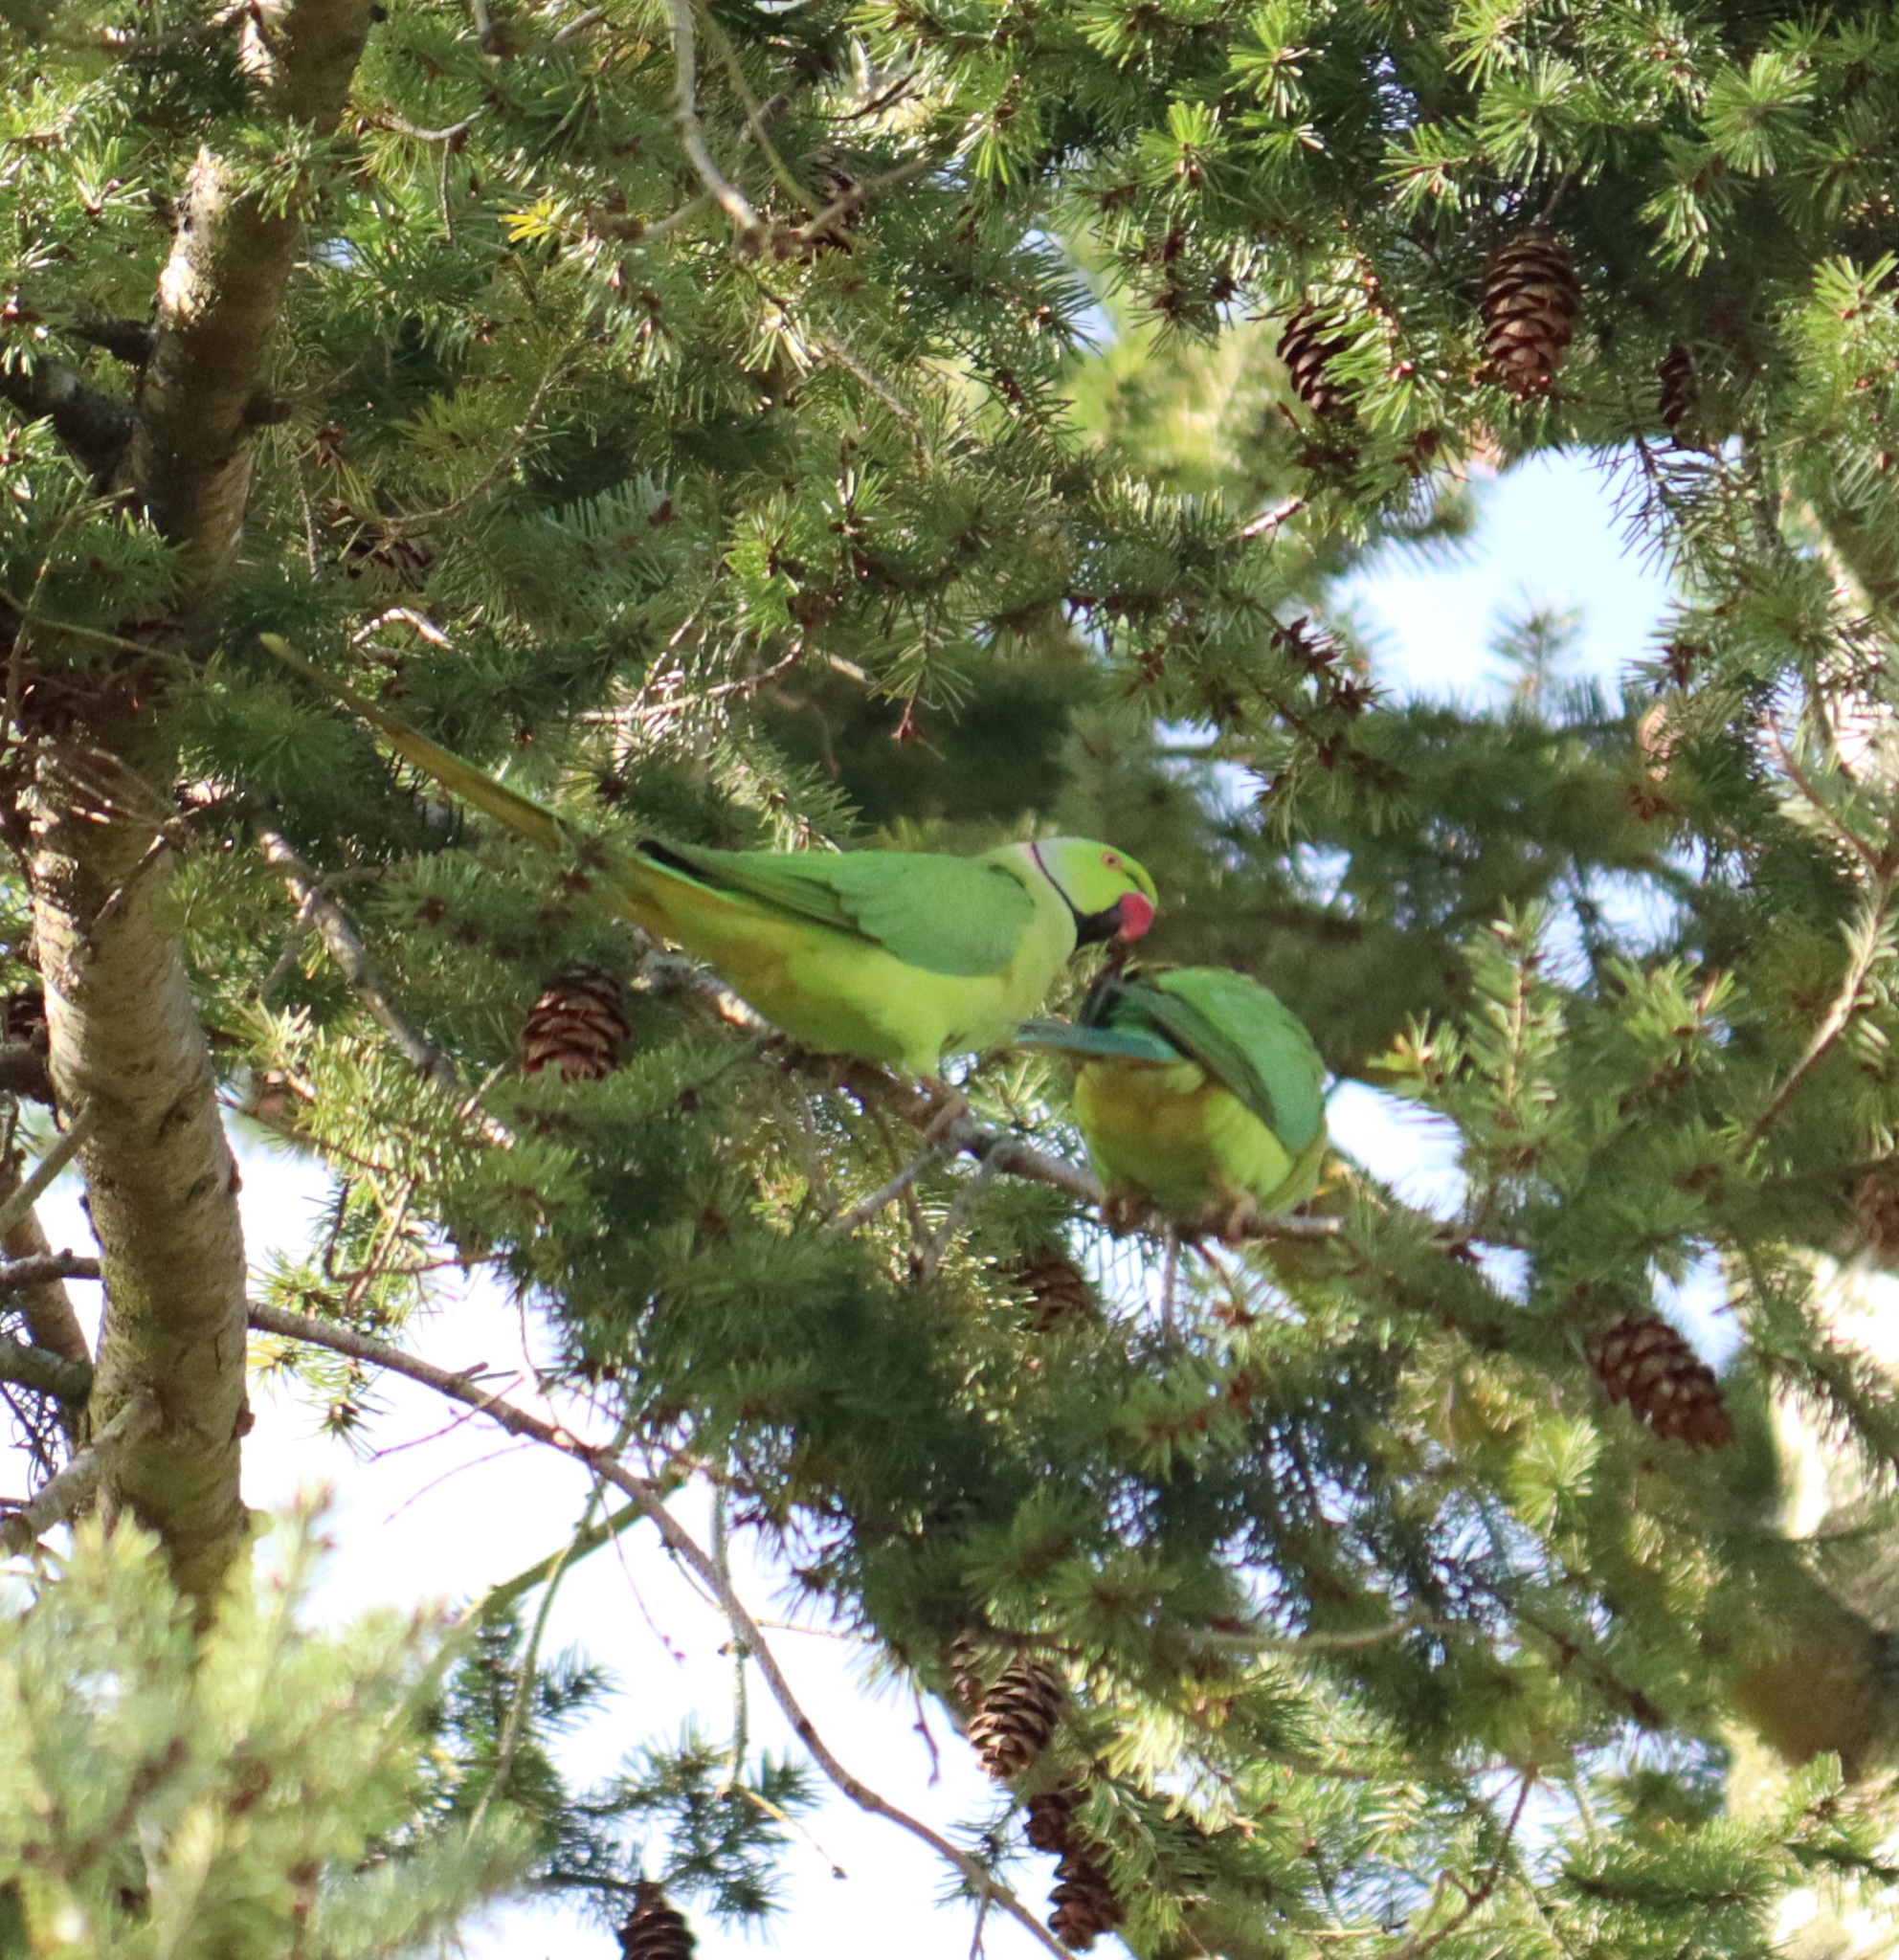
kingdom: Animalia
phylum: Chordata
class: Aves
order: Psittaciformes
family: Psittacidae
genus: Psittacula
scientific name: Psittacula krameri
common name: Rose-ringed parakeet
